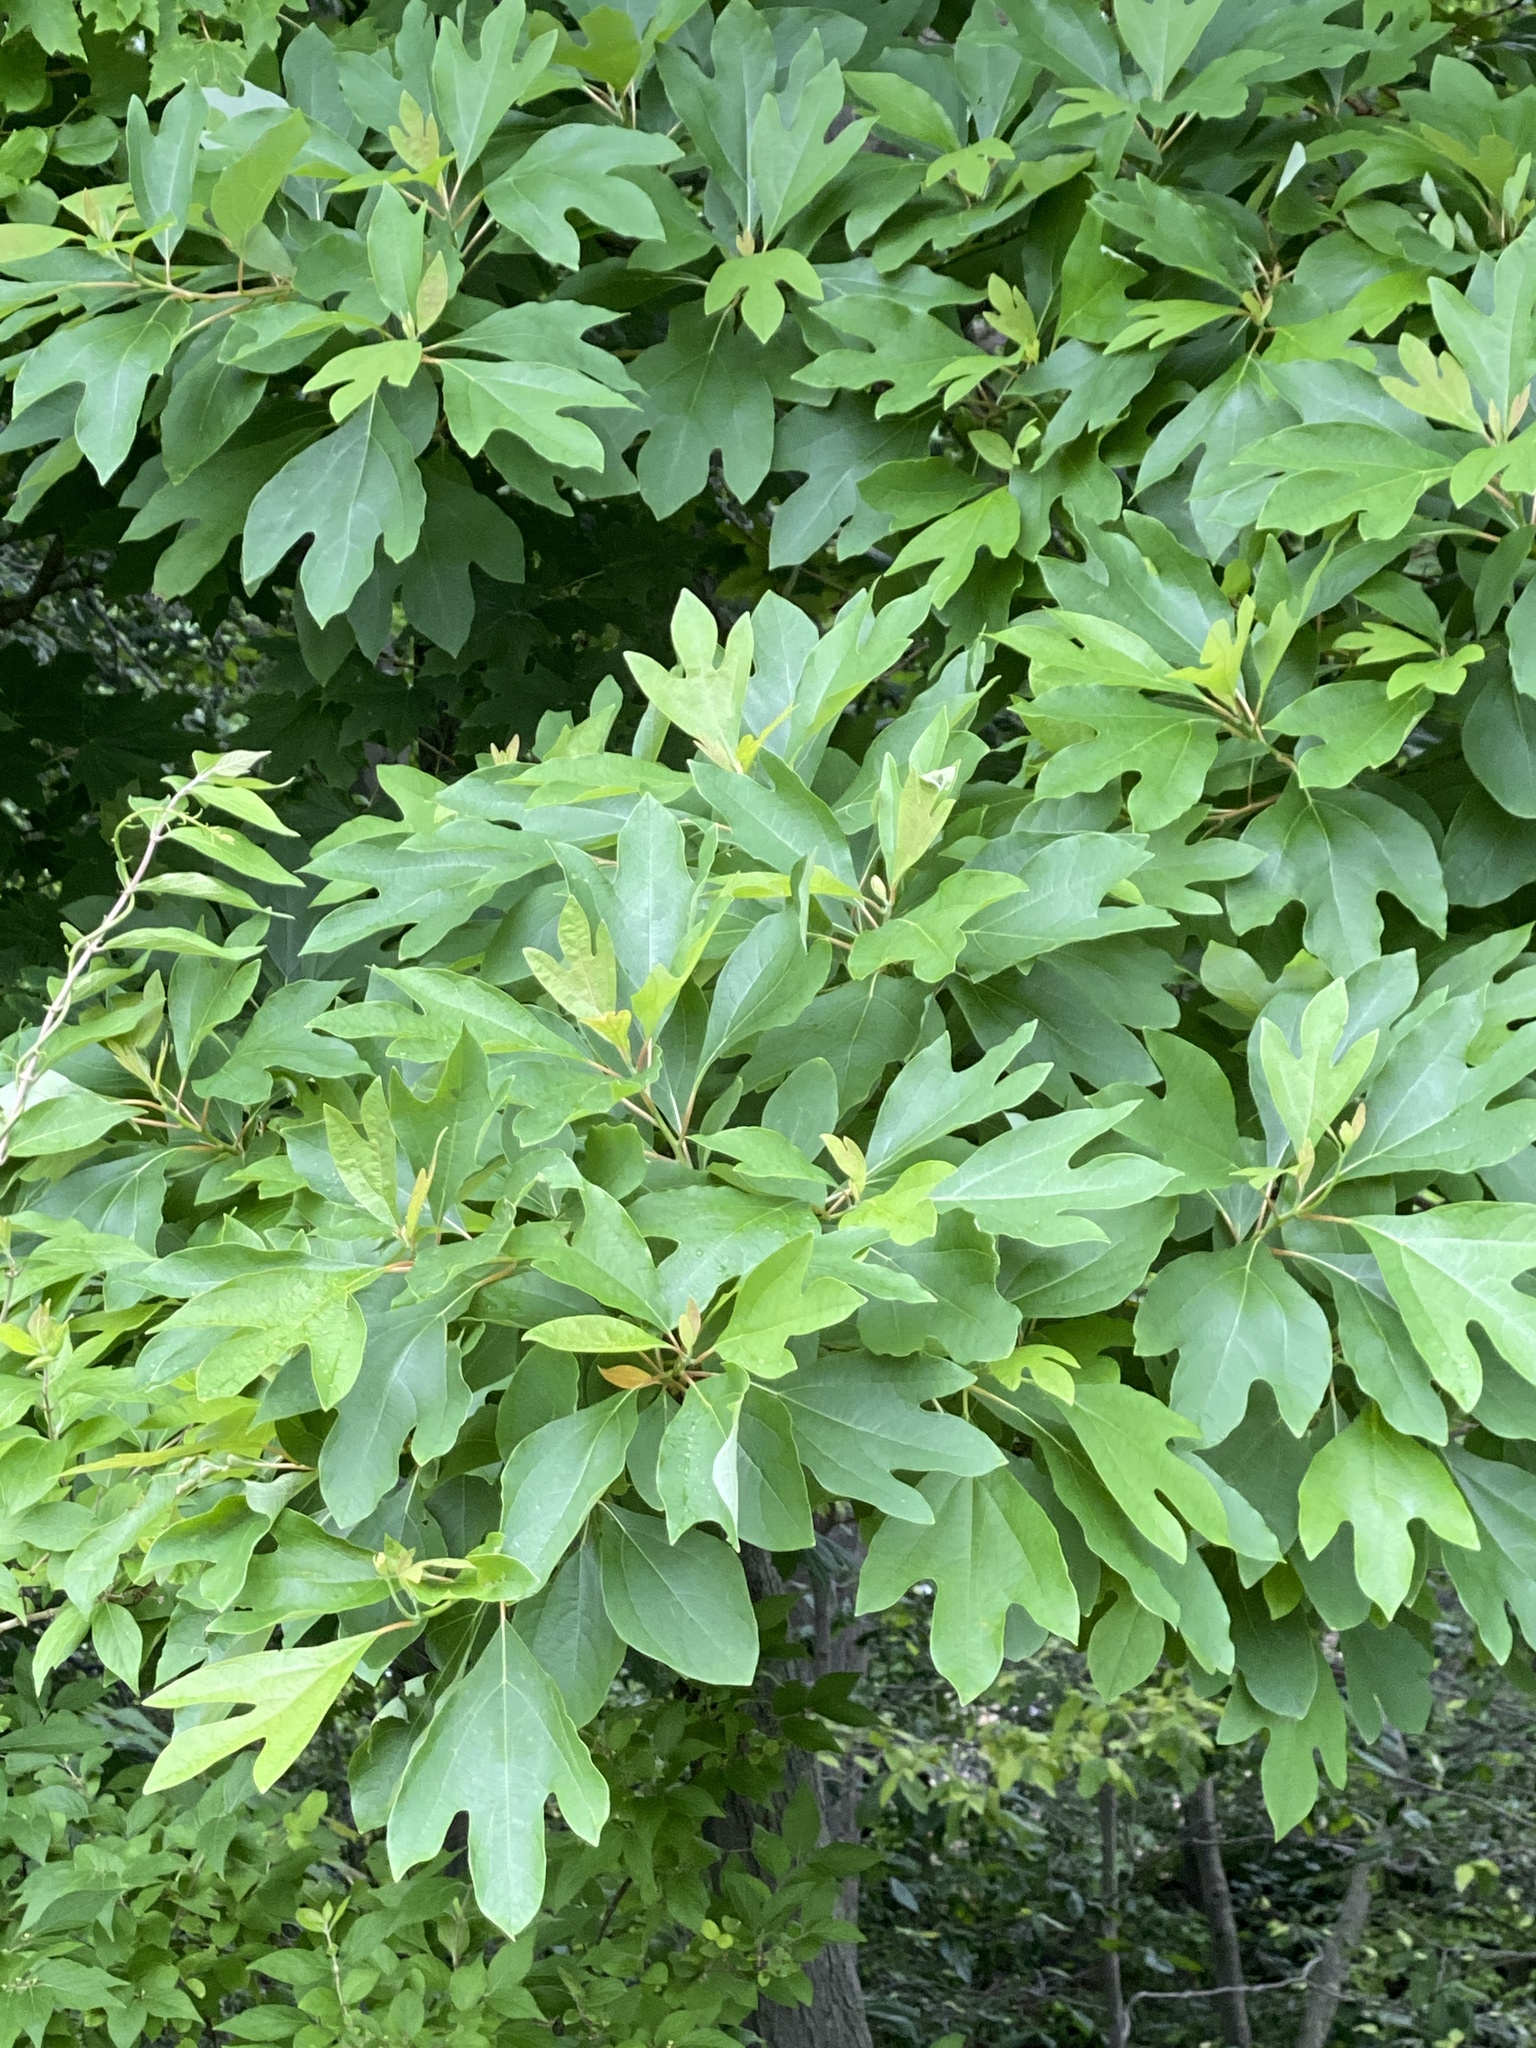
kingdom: Plantae
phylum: Tracheophyta
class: Magnoliopsida
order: Laurales
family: Lauraceae
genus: Sassafras
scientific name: Sassafras albidum
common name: Sassafras
